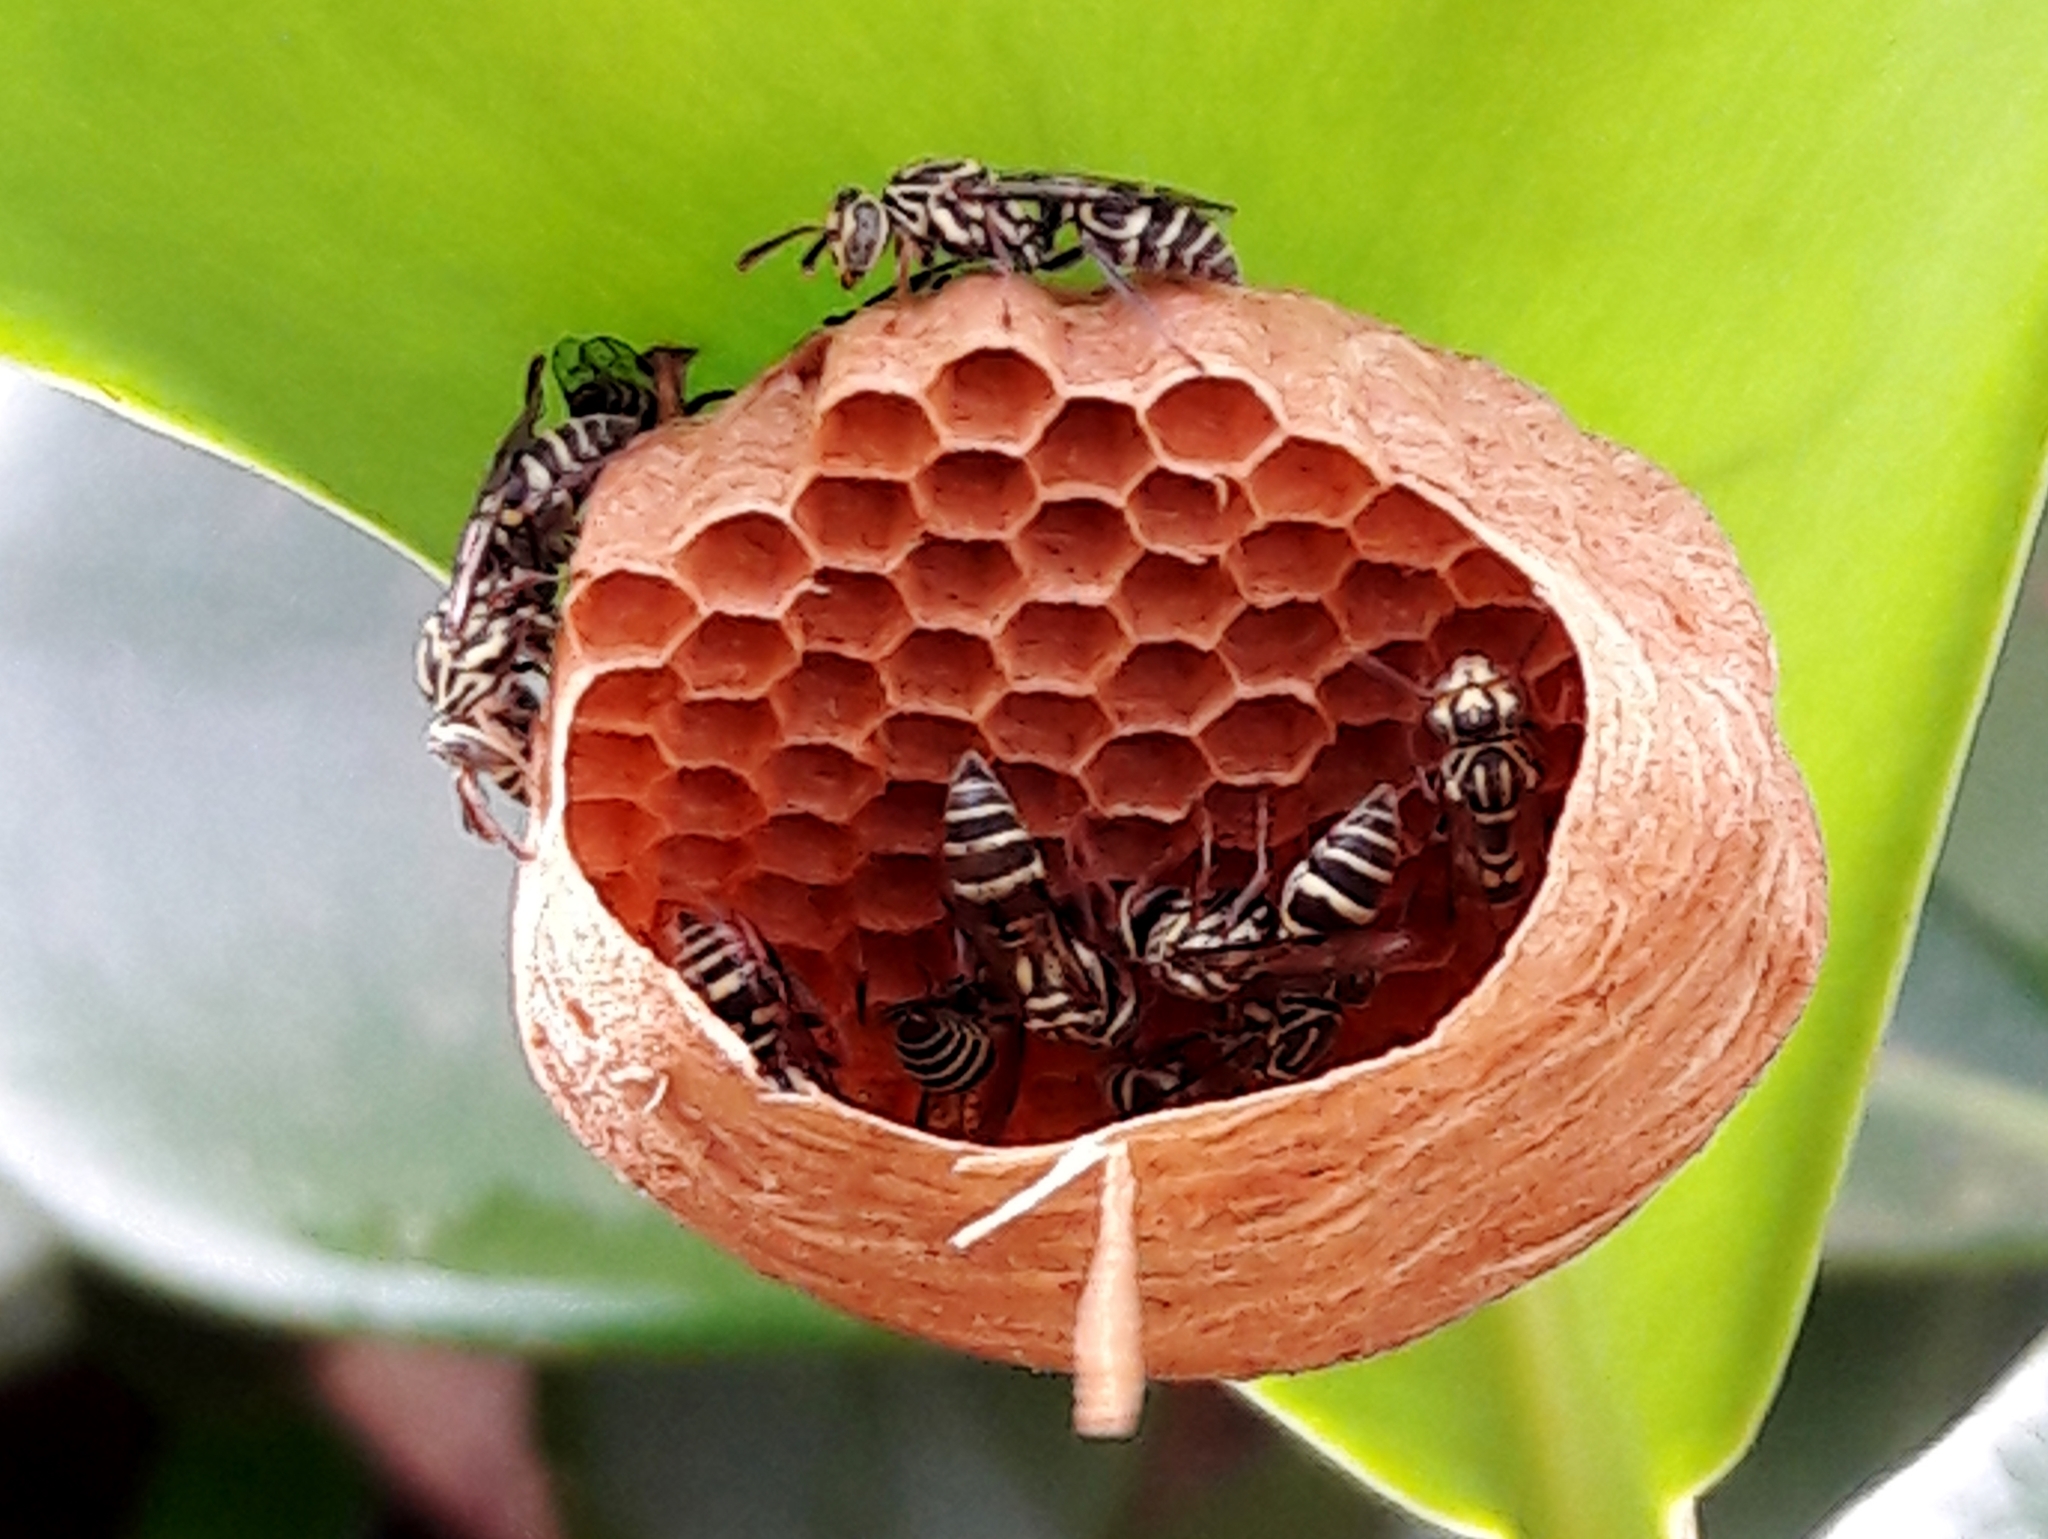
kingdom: Animalia
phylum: Arthropoda
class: Insecta
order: Hymenoptera
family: Vespidae
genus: Protopolybia
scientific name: Protopolybia exigua
